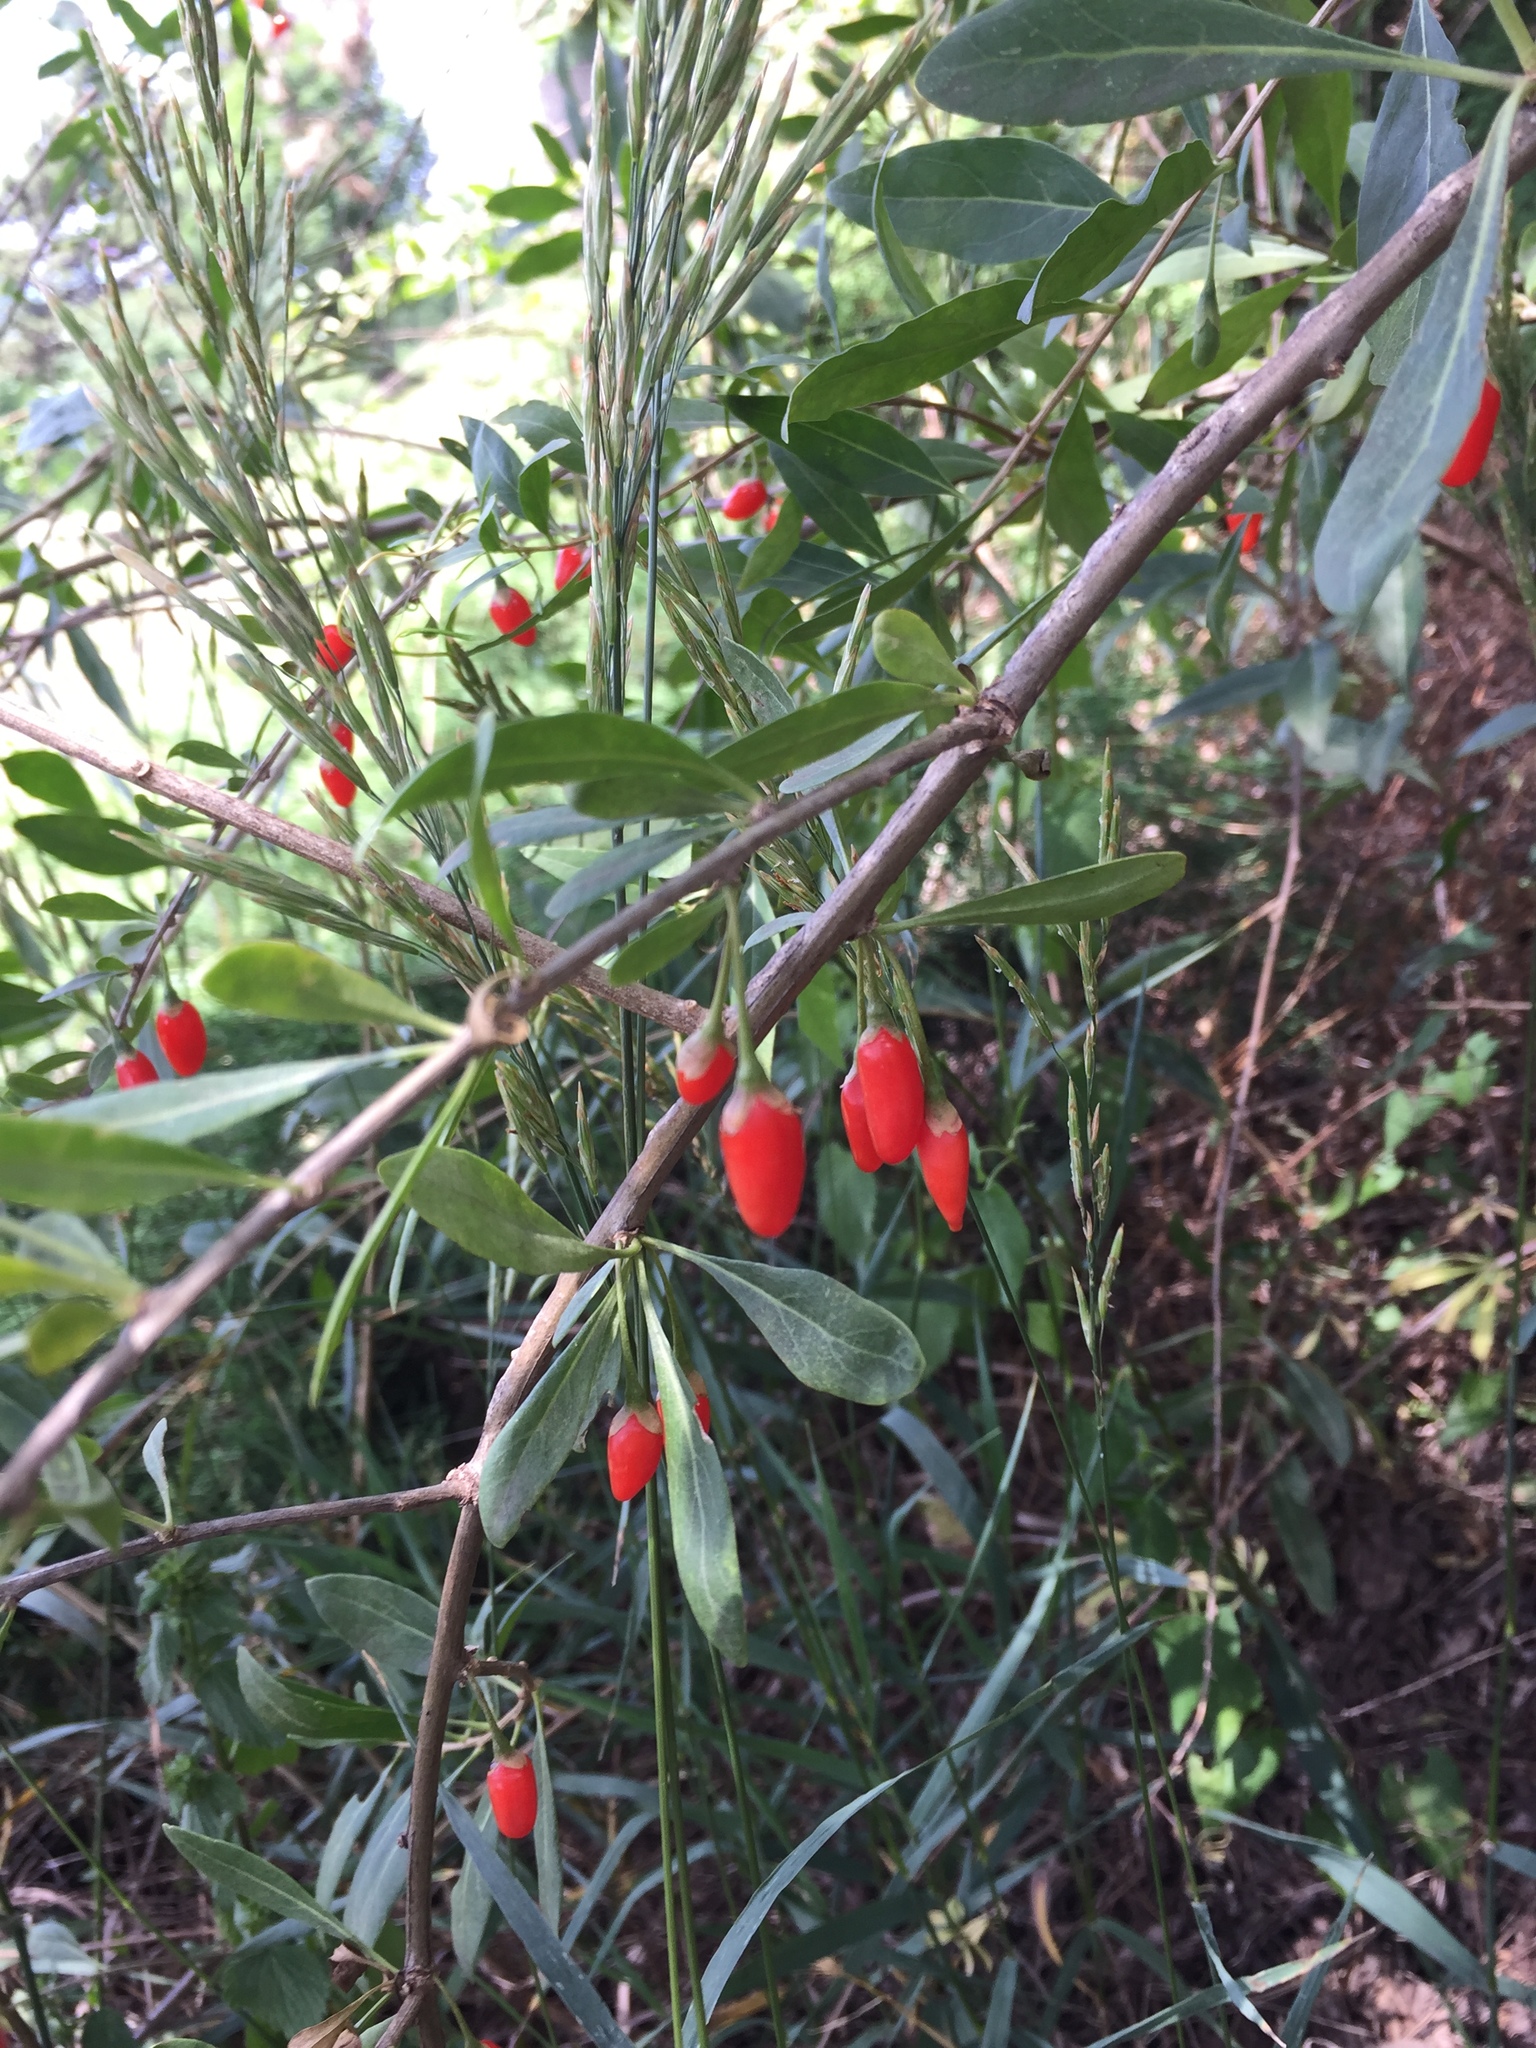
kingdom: Plantae
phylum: Tracheophyta
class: Magnoliopsida
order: Solanales
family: Solanaceae
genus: Lycium
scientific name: Lycium barbarum
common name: Duke of argyll's teaplant
